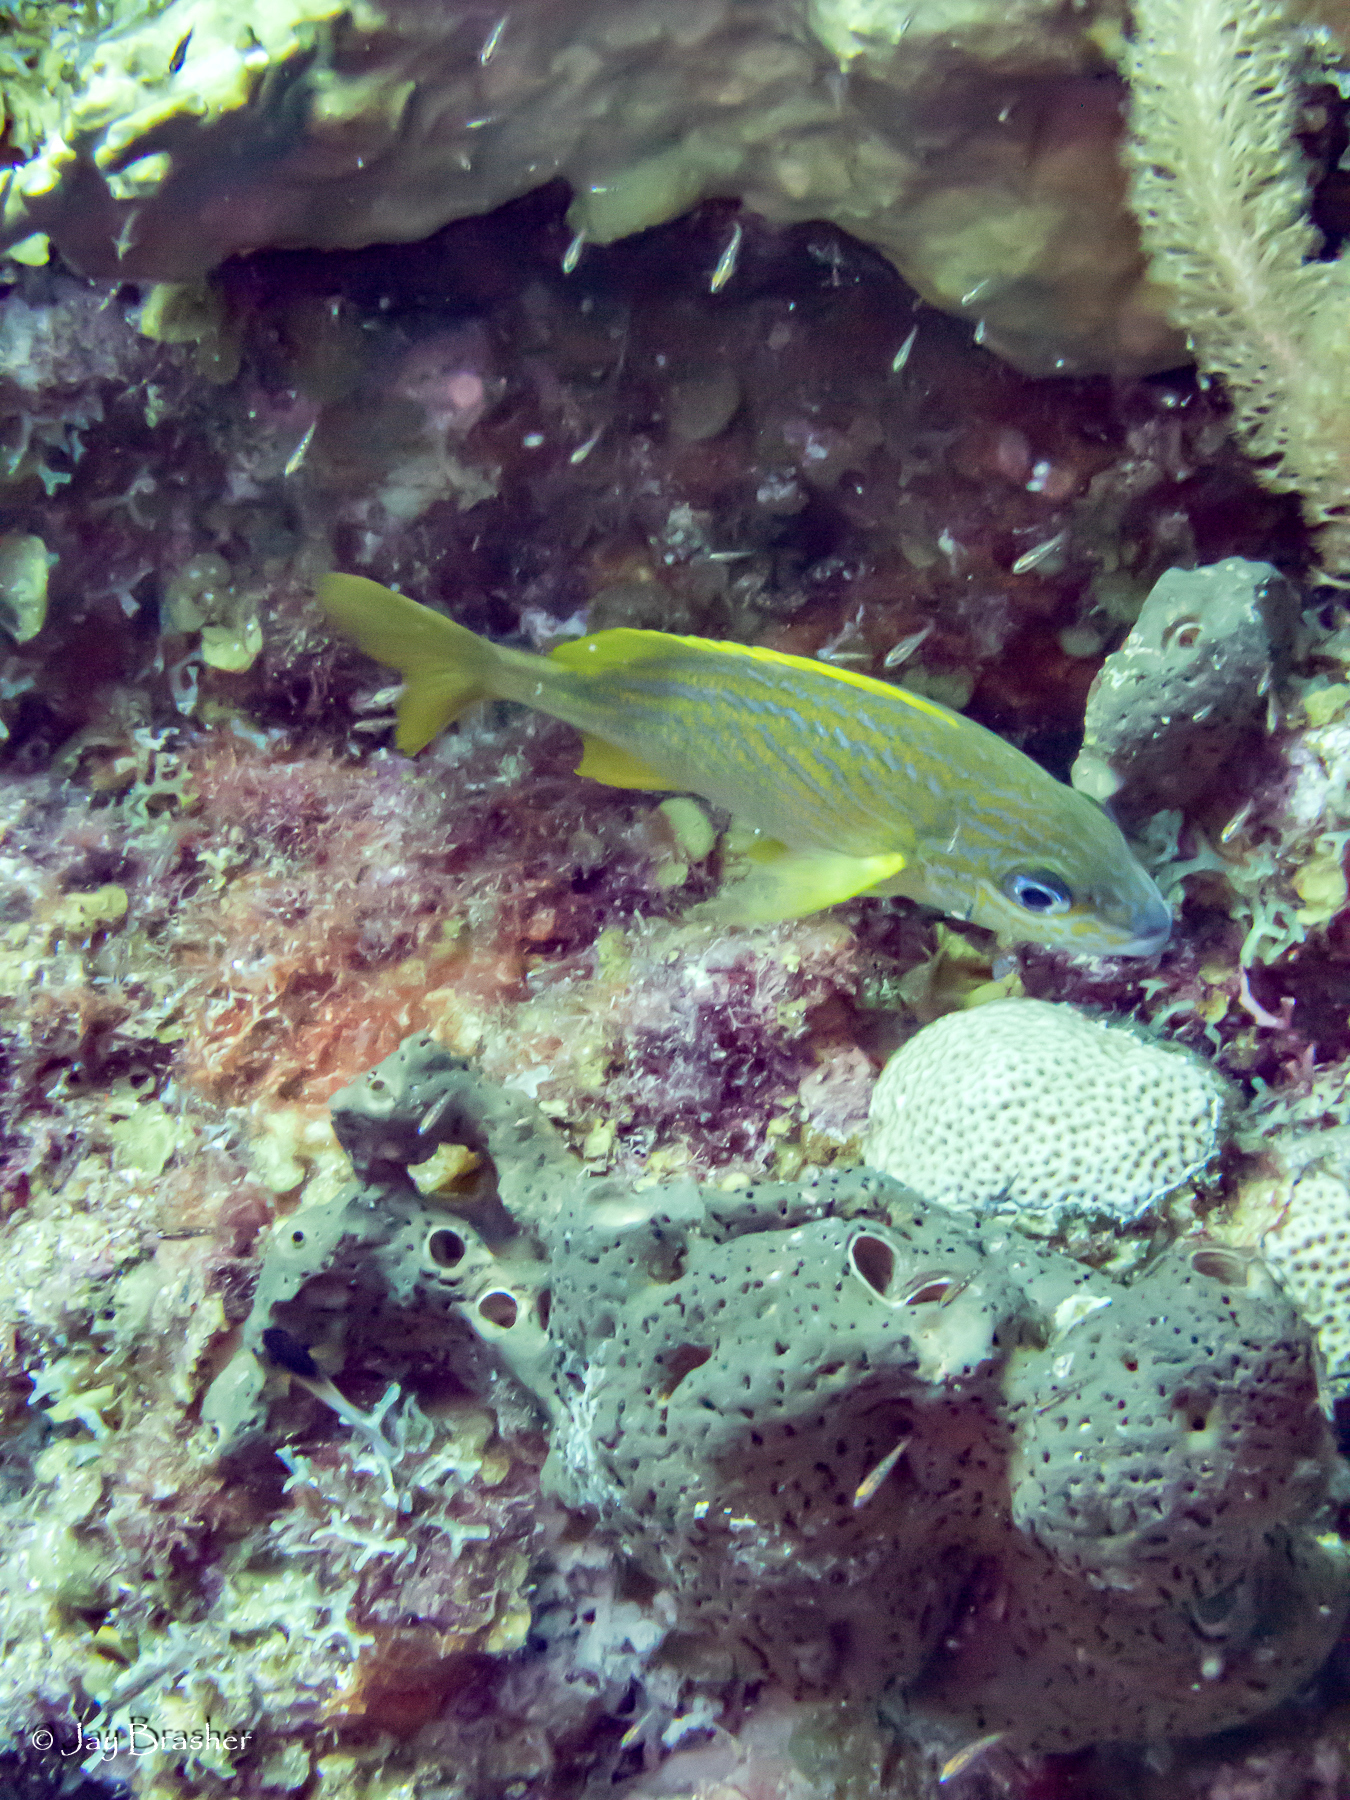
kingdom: Animalia
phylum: Porifera
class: Demospongiae
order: Agelasida
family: Agelasidae
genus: Agelas
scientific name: Agelas conifera
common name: Brown tube sponge
